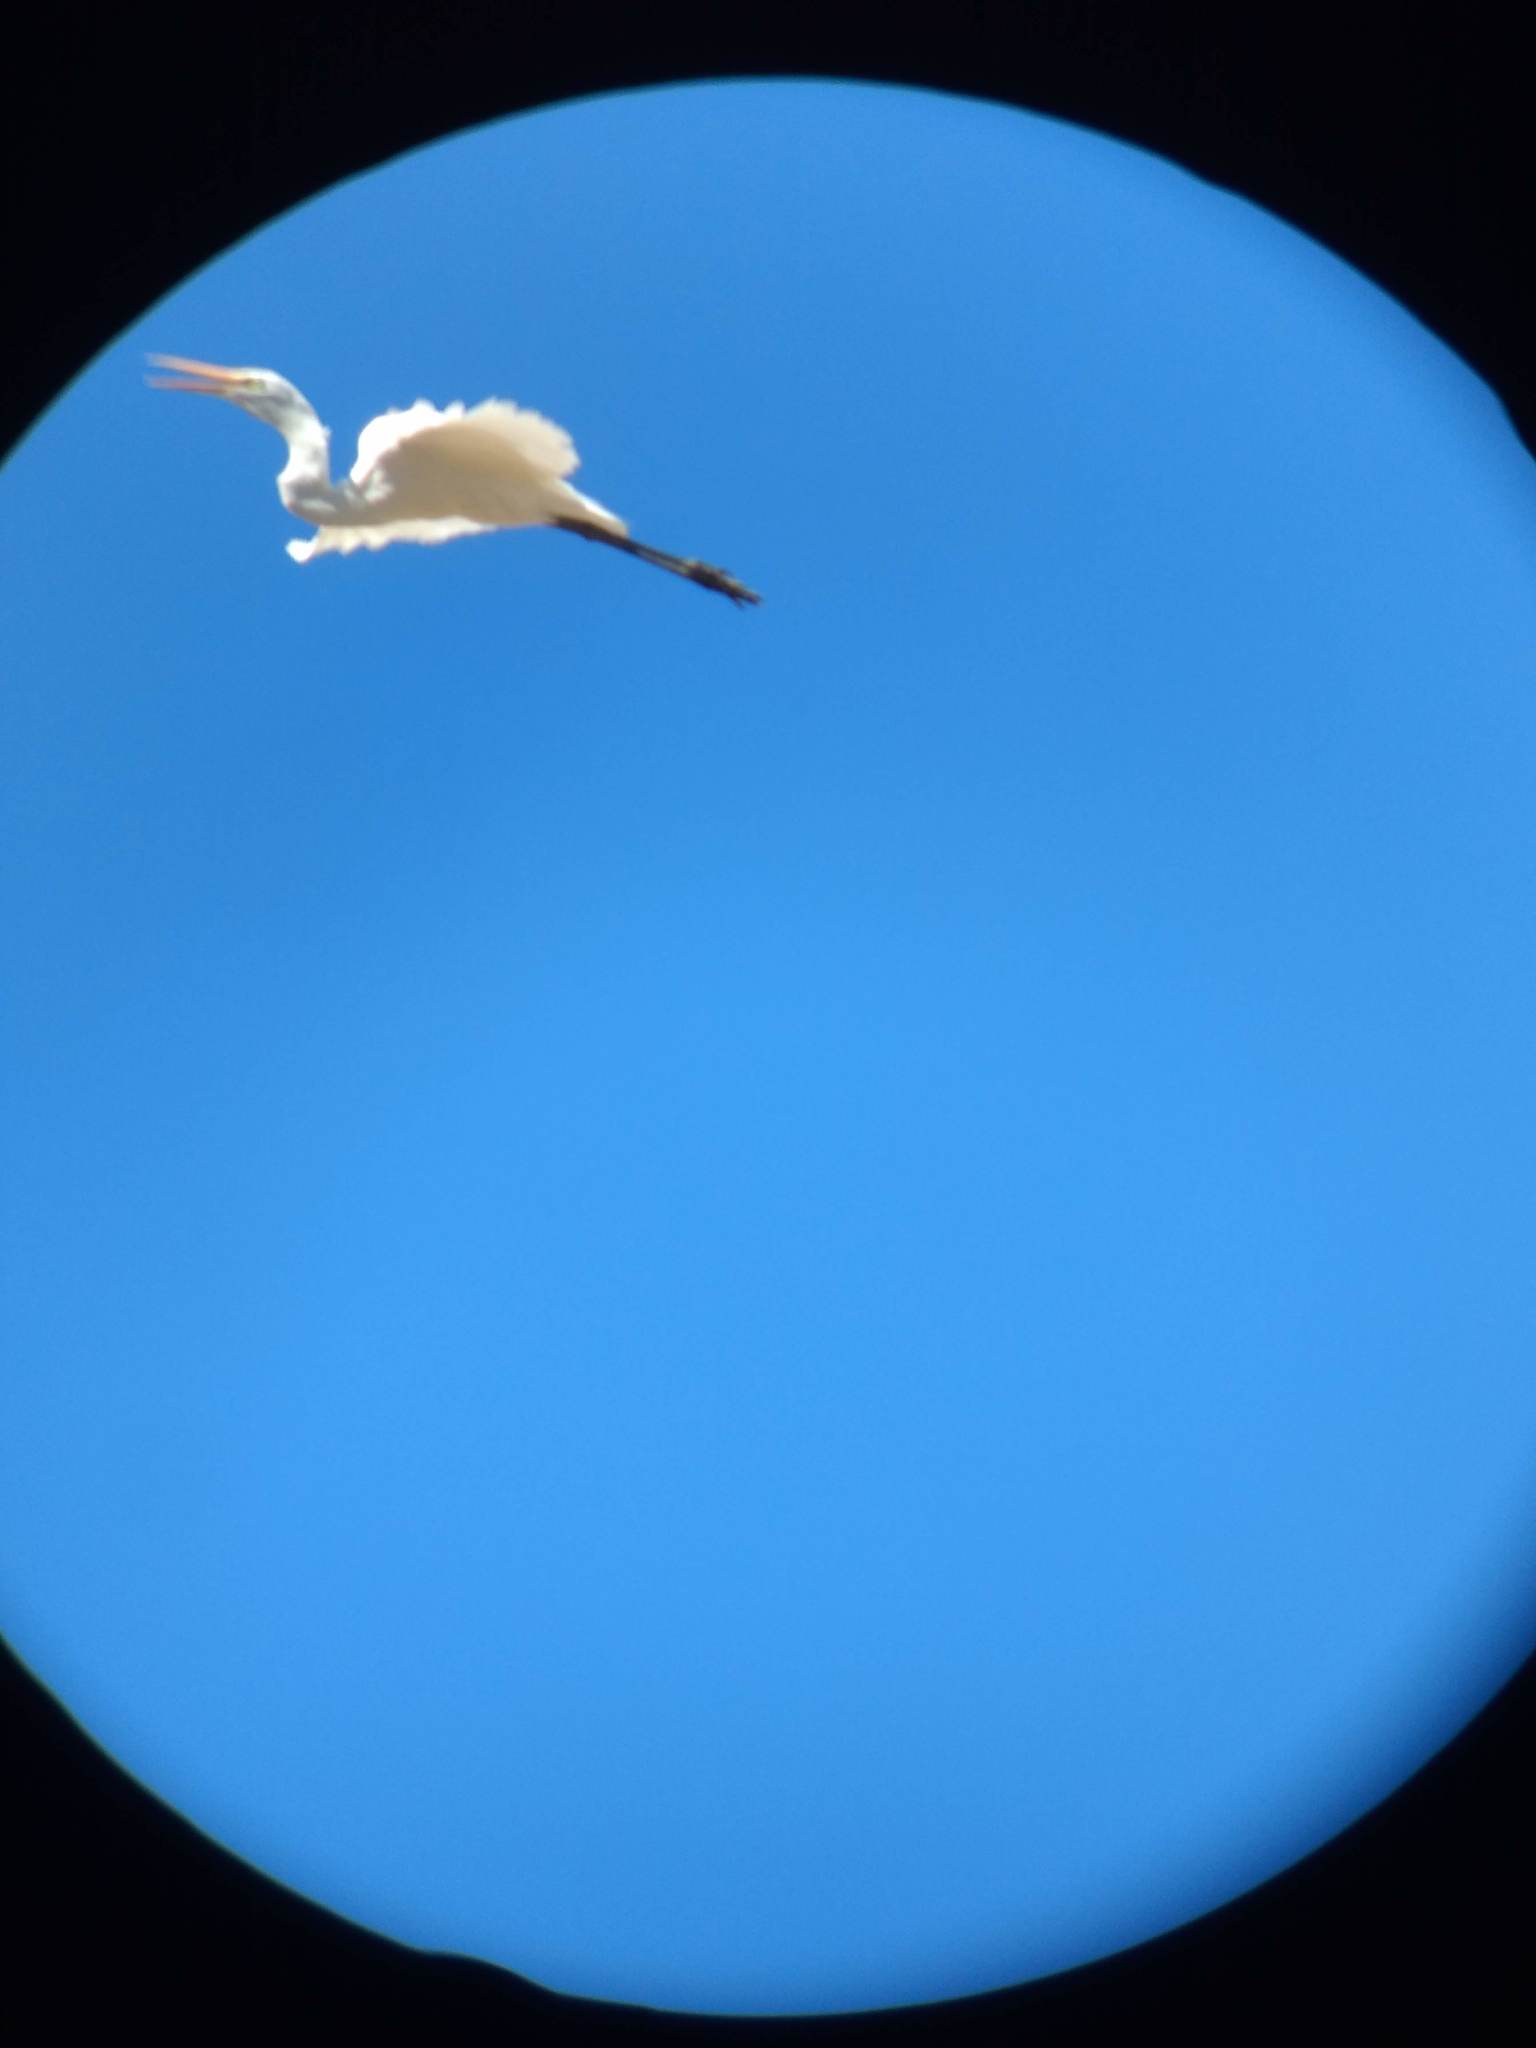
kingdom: Animalia
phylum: Chordata
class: Aves
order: Pelecaniformes
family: Ardeidae
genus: Ardea
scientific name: Ardea alba
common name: Great egret
